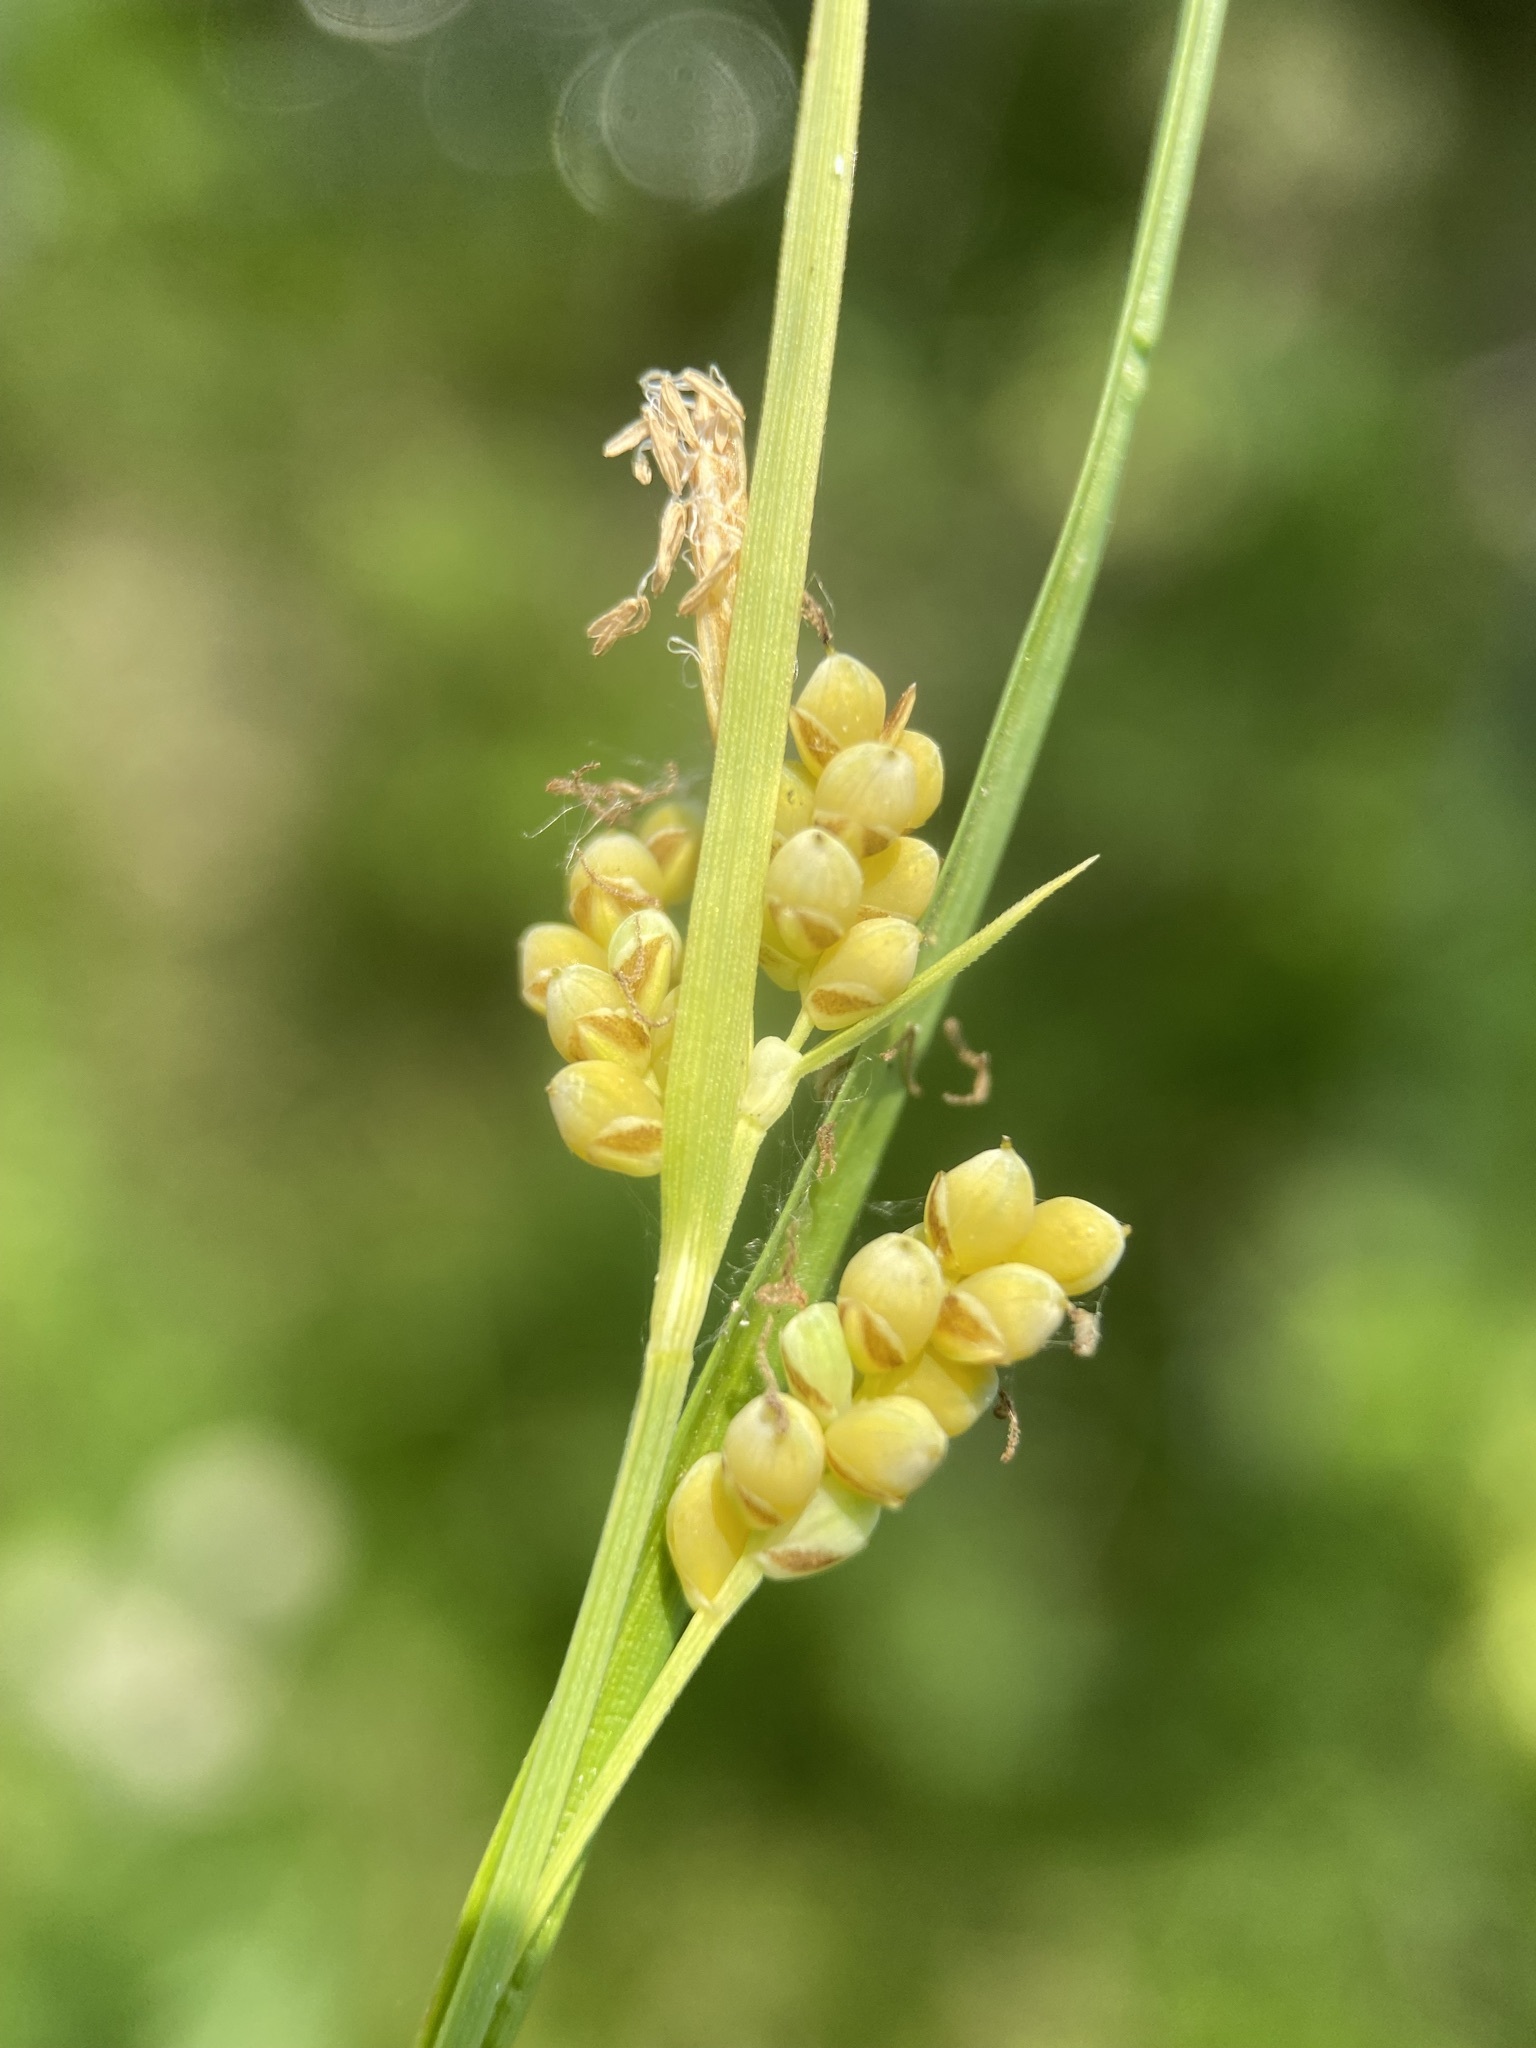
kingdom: Plantae
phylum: Tracheophyta
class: Liliopsida
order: Poales
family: Cyperaceae
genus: Carex
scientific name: Carex aurea
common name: Golden sedge
